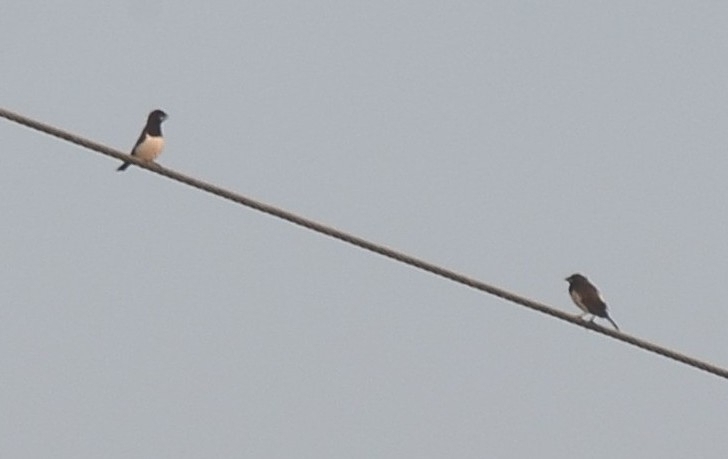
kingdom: Animalia
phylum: Chordata
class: Aves
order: Passeriformes
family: Estrildidae
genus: Lonchura
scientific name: Lonchura striata
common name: White-rumped munia
